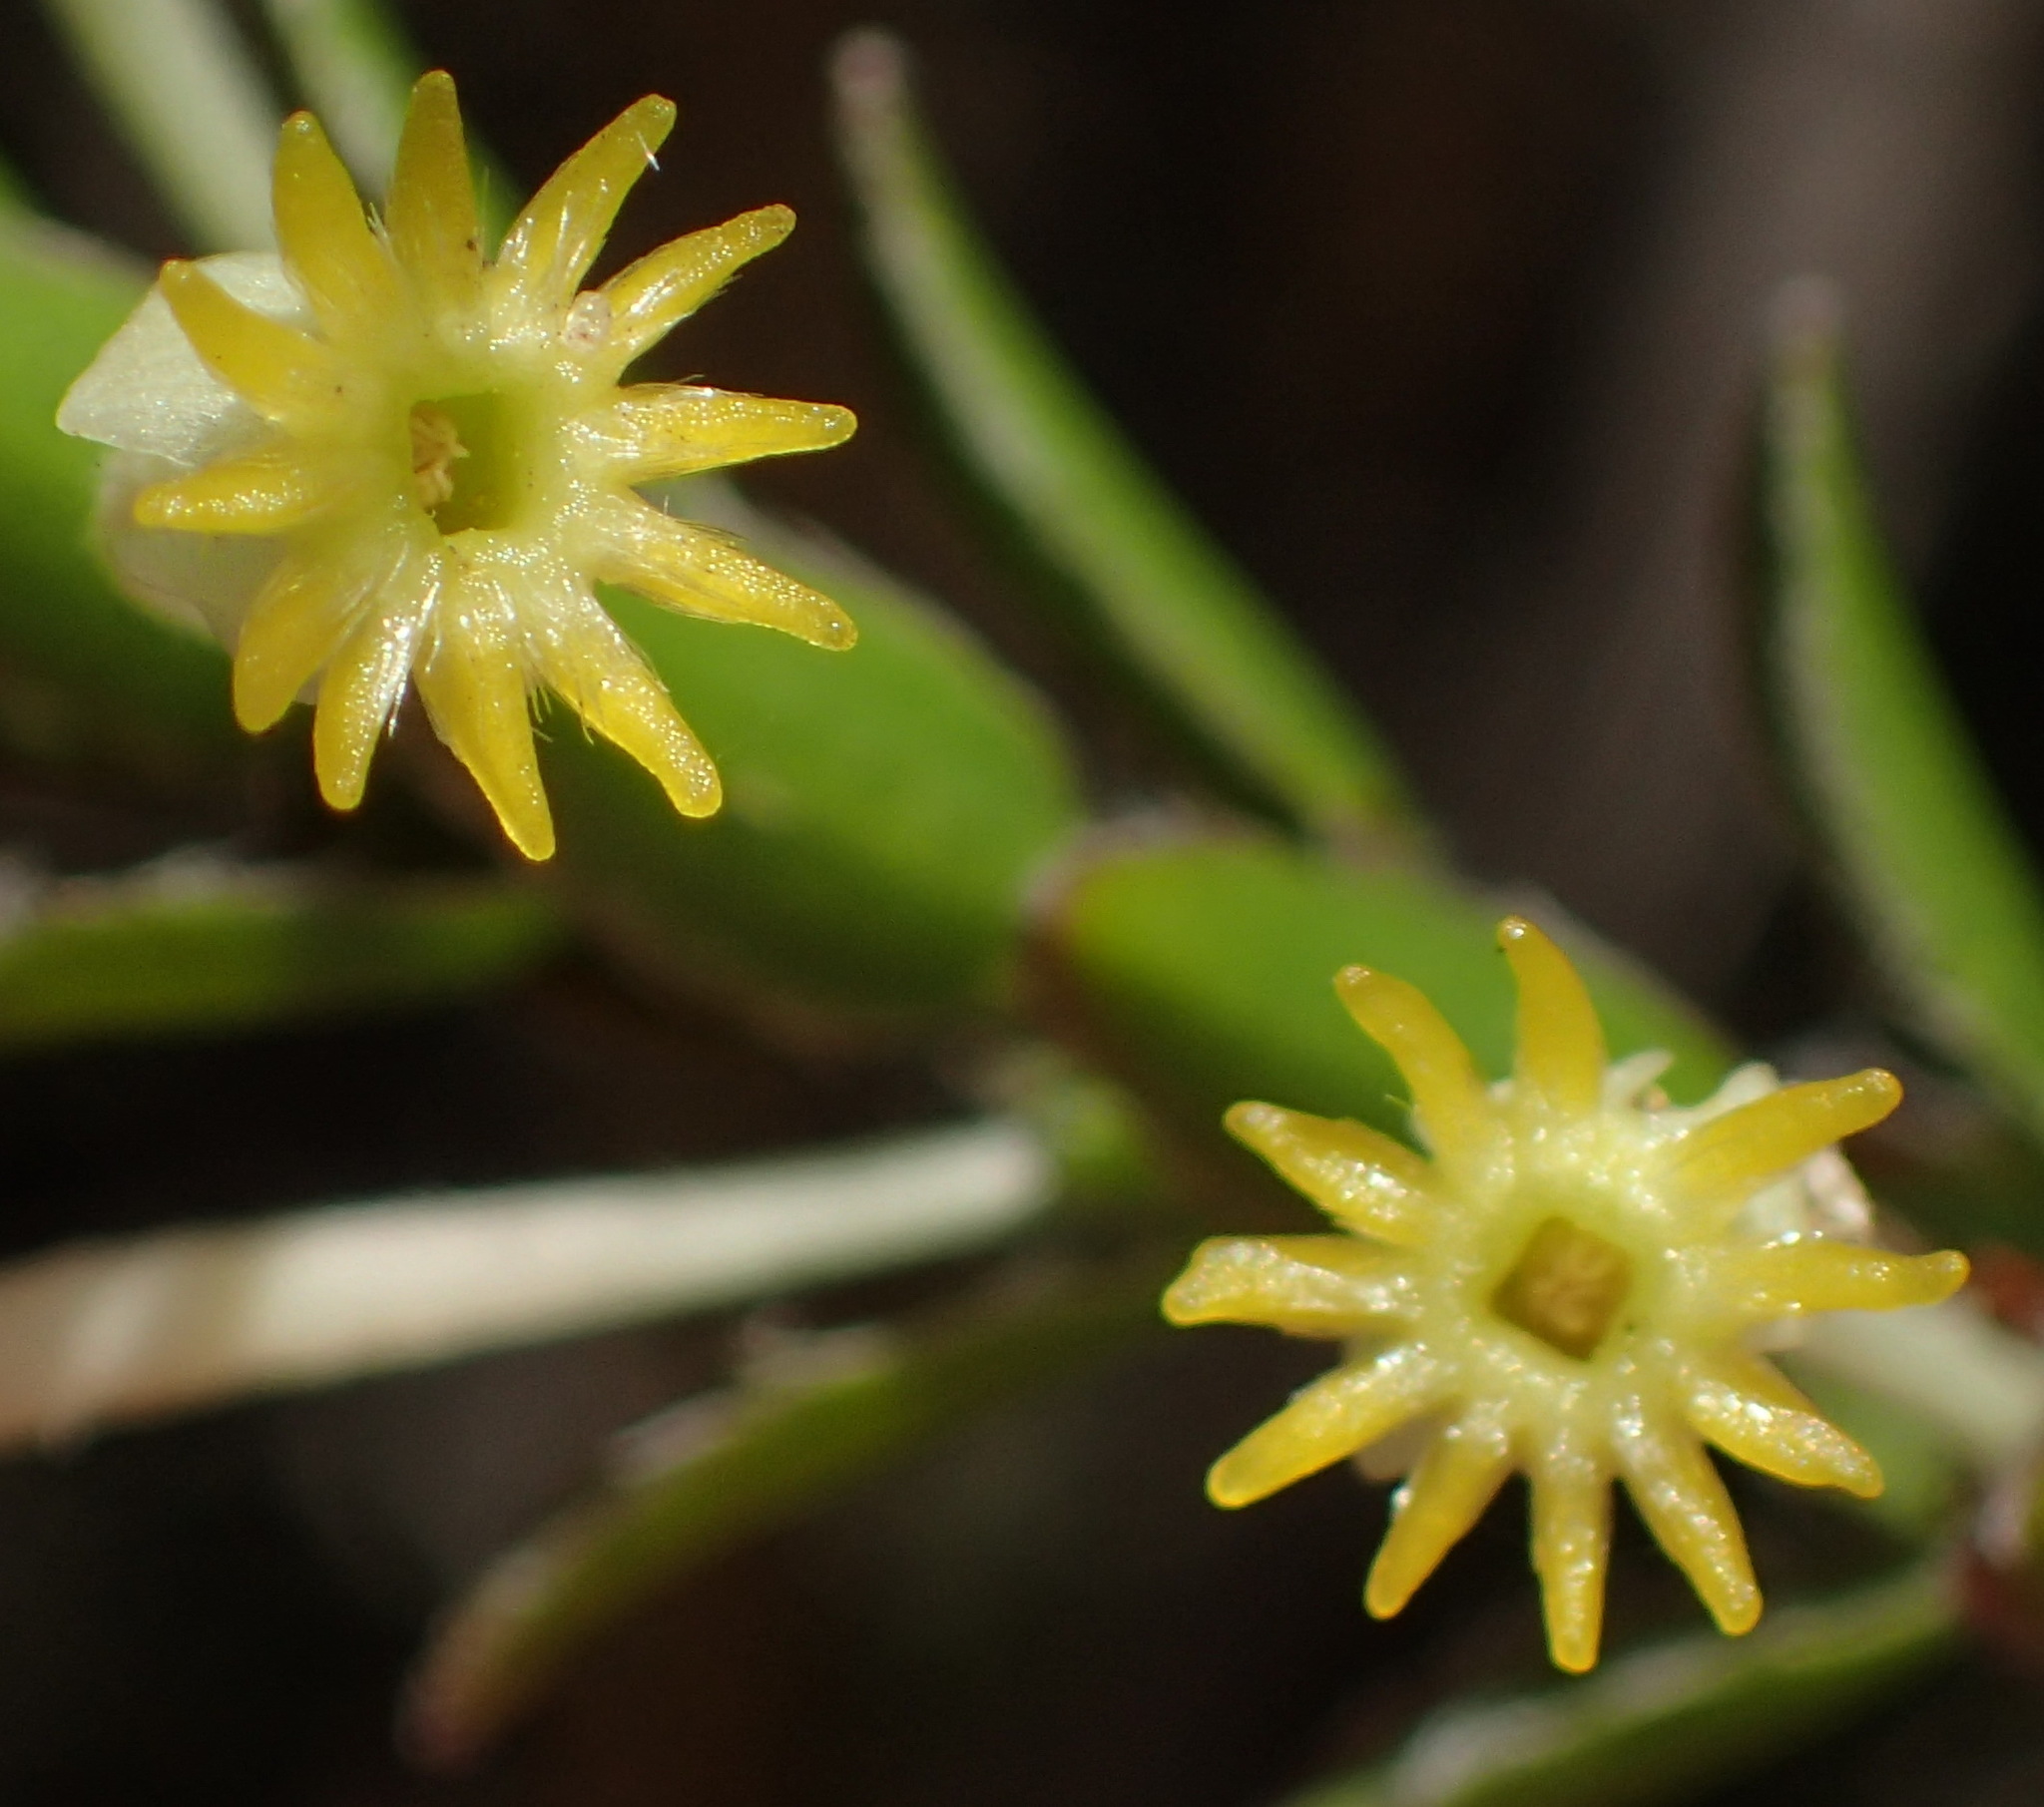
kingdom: Plantae
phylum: Tracheophyta
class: Magnoliopsida
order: Malvales
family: Thymelaeaceae
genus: Struthiola
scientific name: Struthiola argentea
